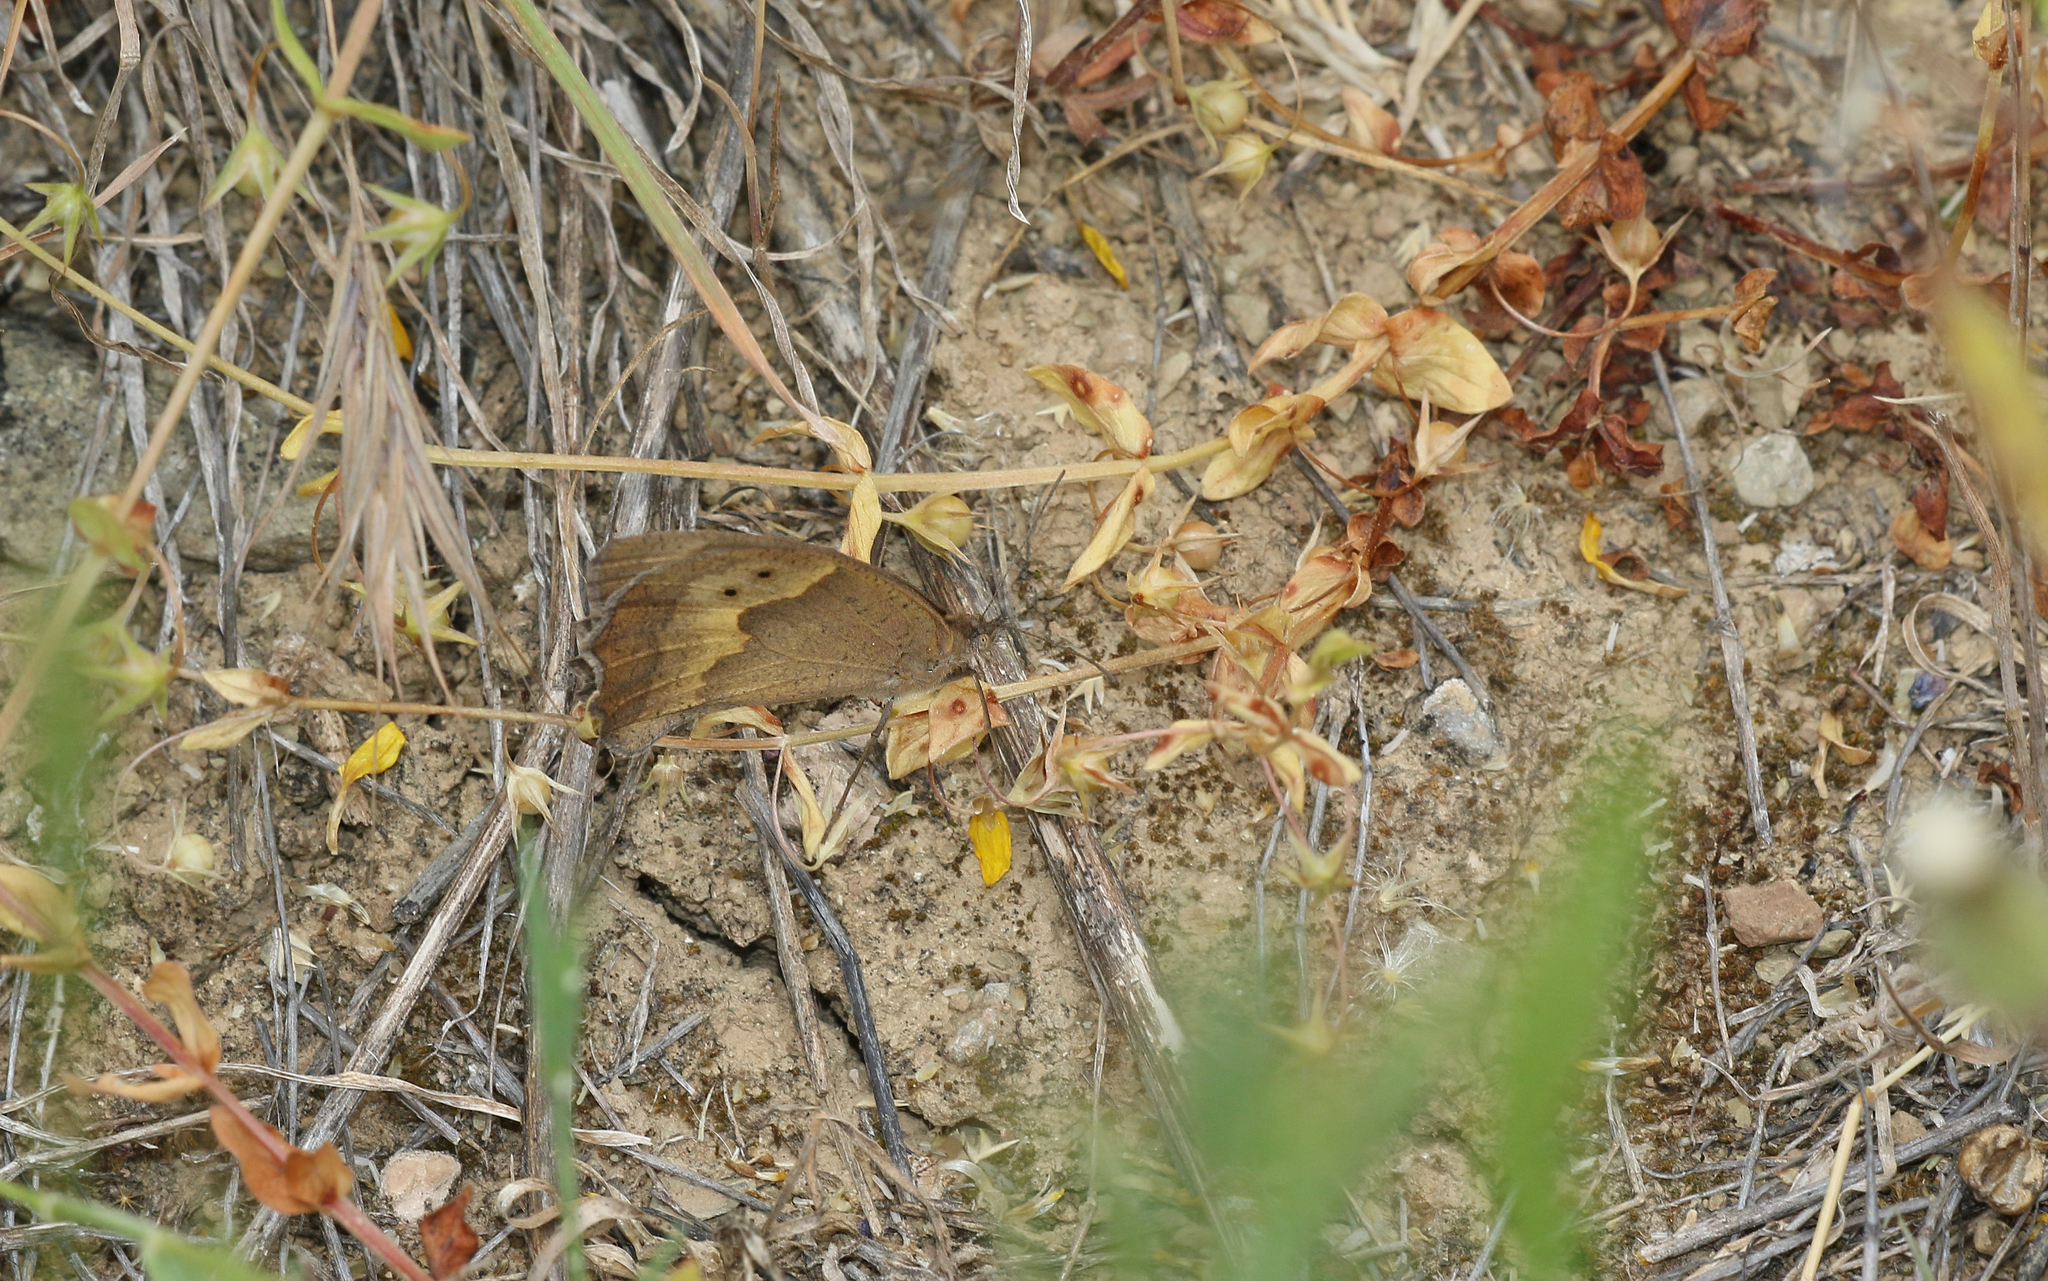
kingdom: Animalia
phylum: Arthropoda
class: Insecta
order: Lepidoptera
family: Nymphalidae
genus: Maniola
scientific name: Maniola jurtina
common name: Meadow brown
